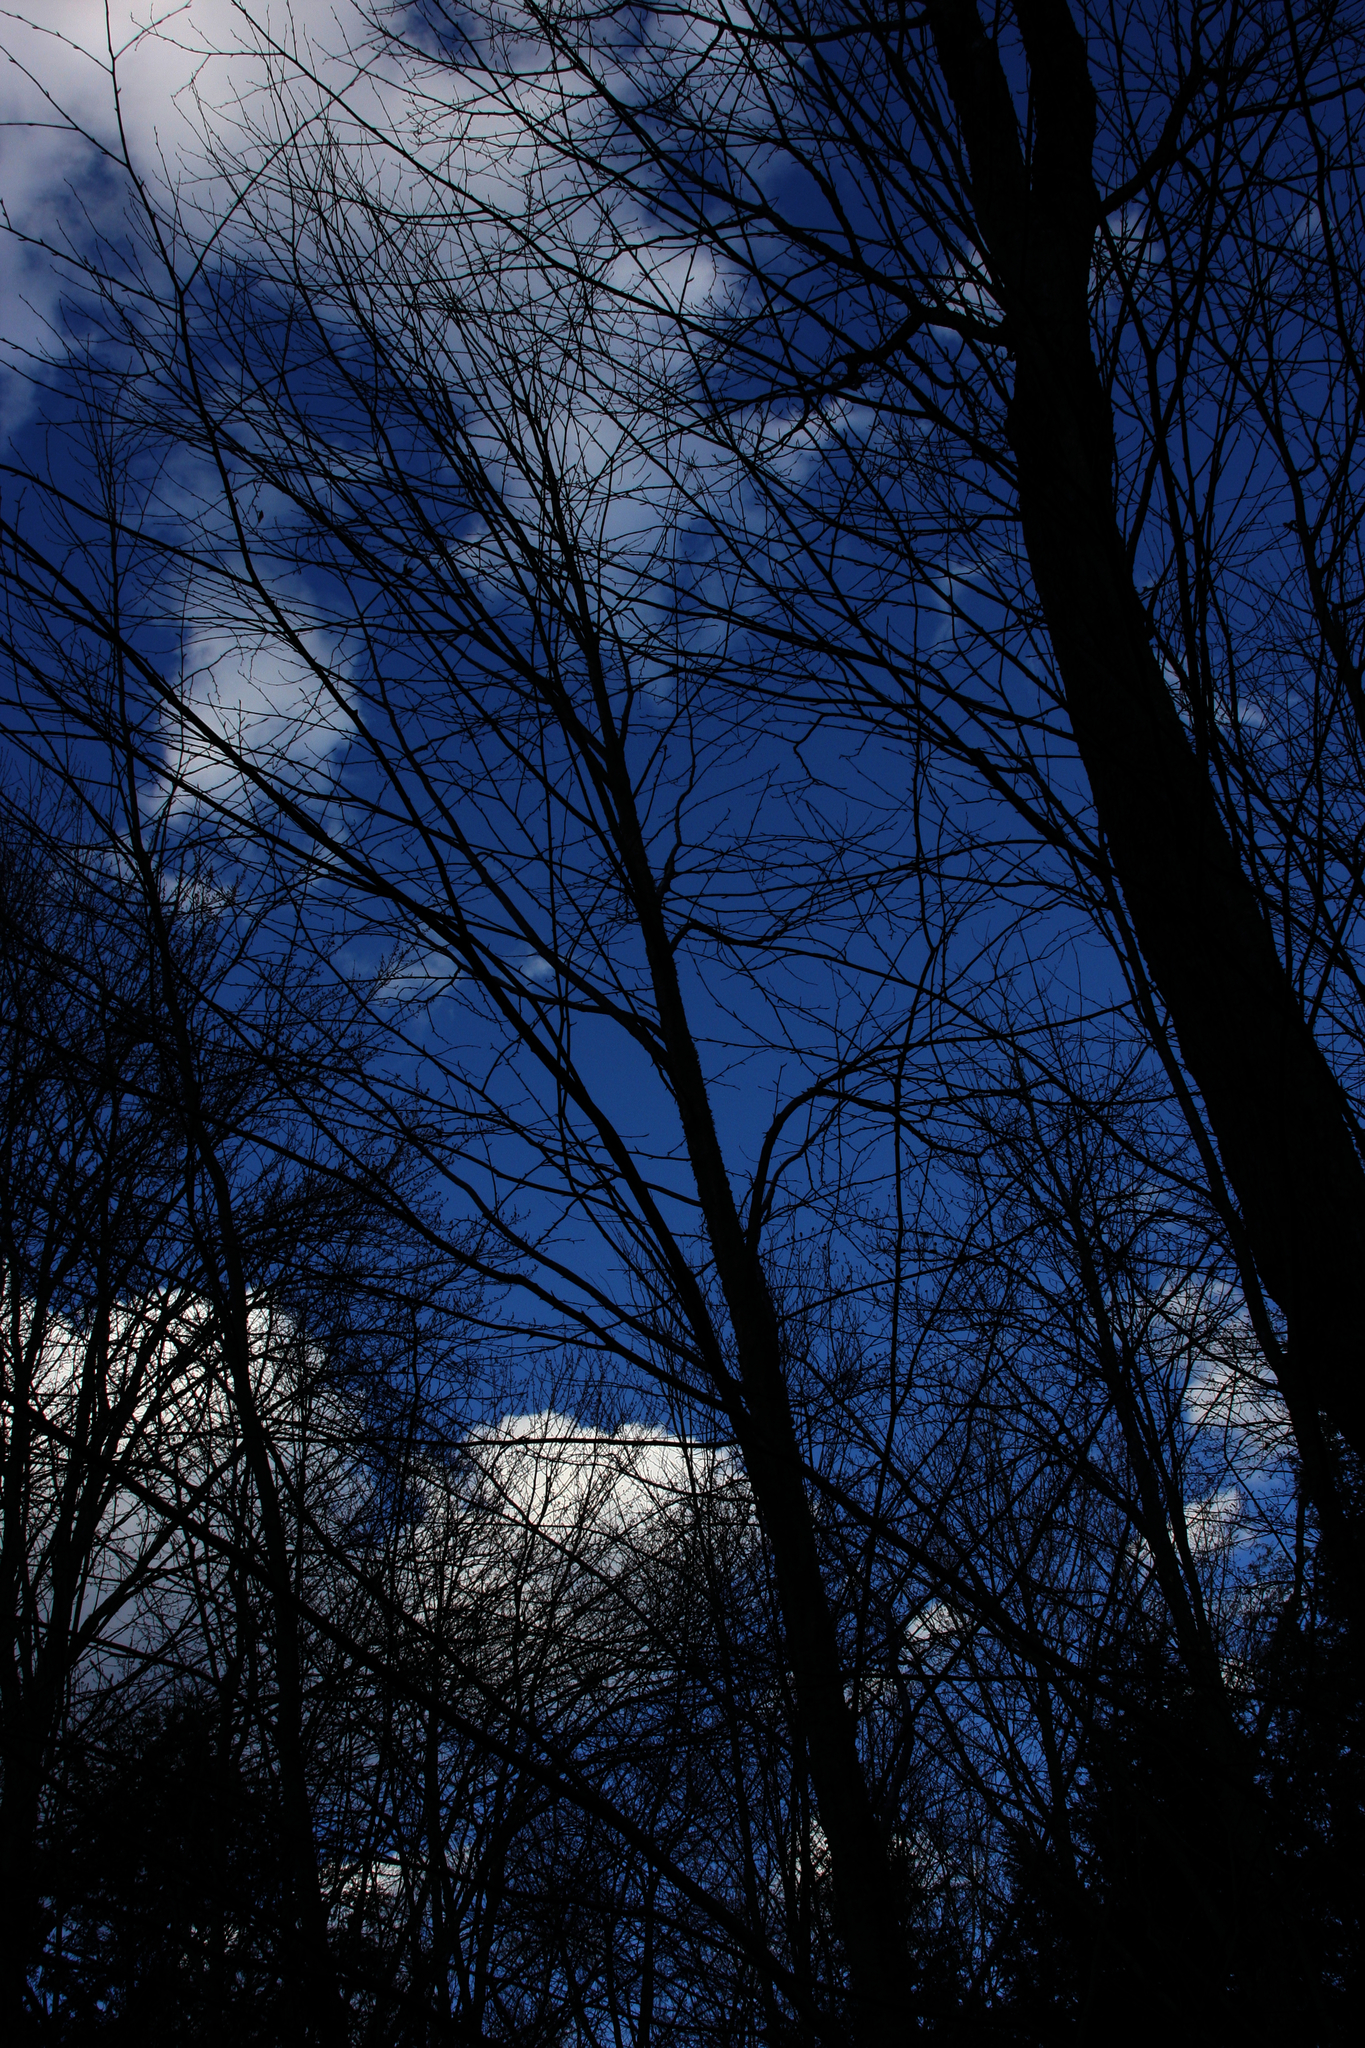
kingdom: Plantae
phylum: Tracheophyta
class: Magnoliopsida
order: Fagales
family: Betulaceae
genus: Betula
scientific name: Betula alleghaniensis
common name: Yellow birch
